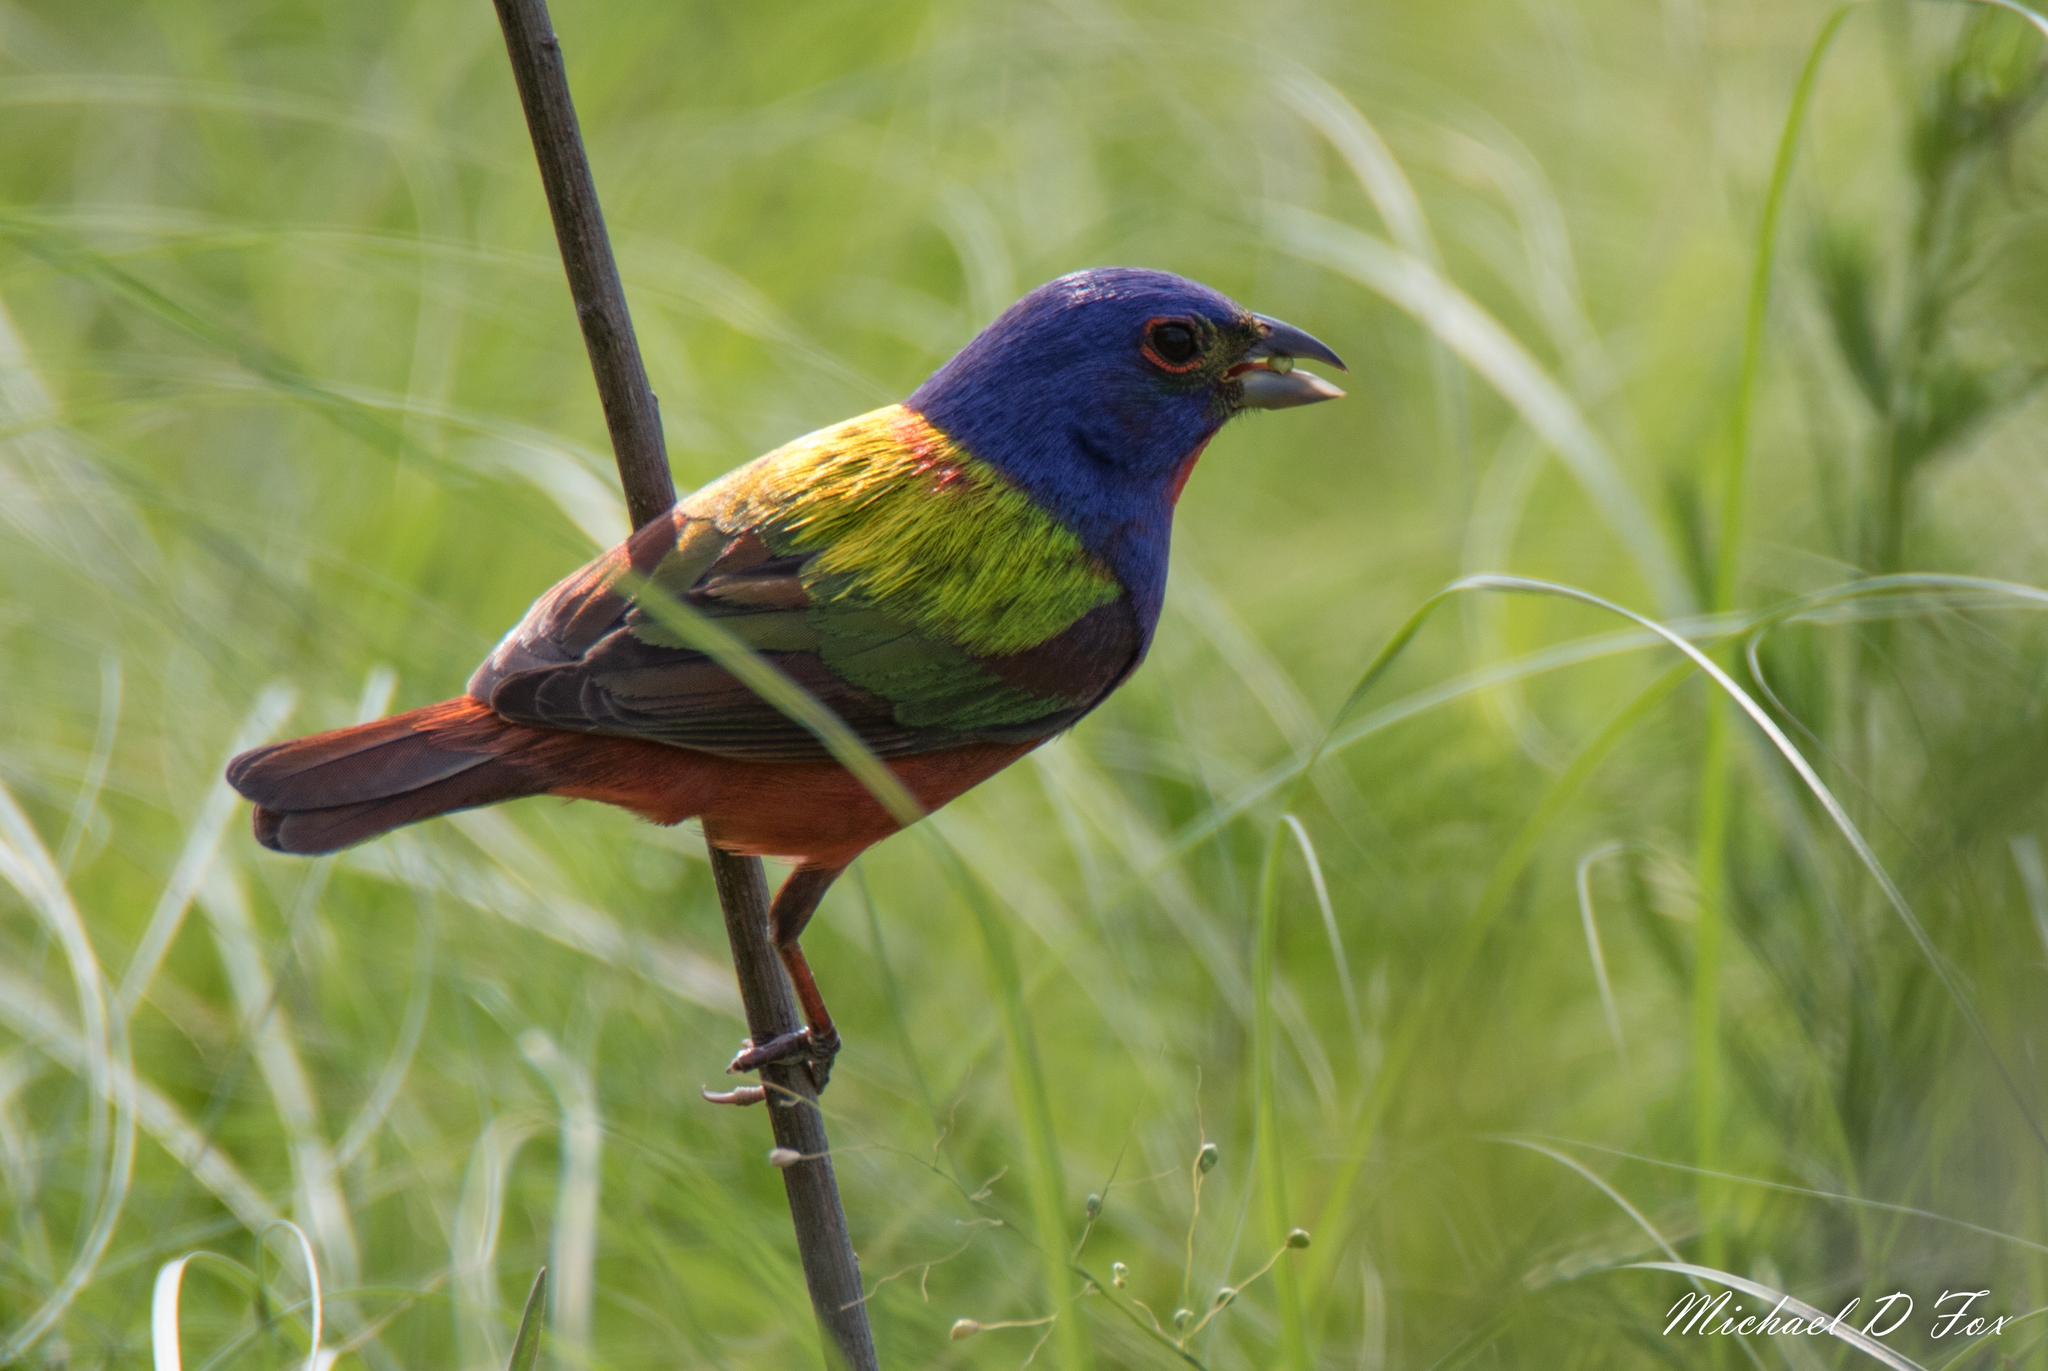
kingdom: Animalia
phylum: Chordata
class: Aves
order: Passeriformes
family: Cardinalidae
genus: Passerina
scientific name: Passerina ciris
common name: Painted bunting
